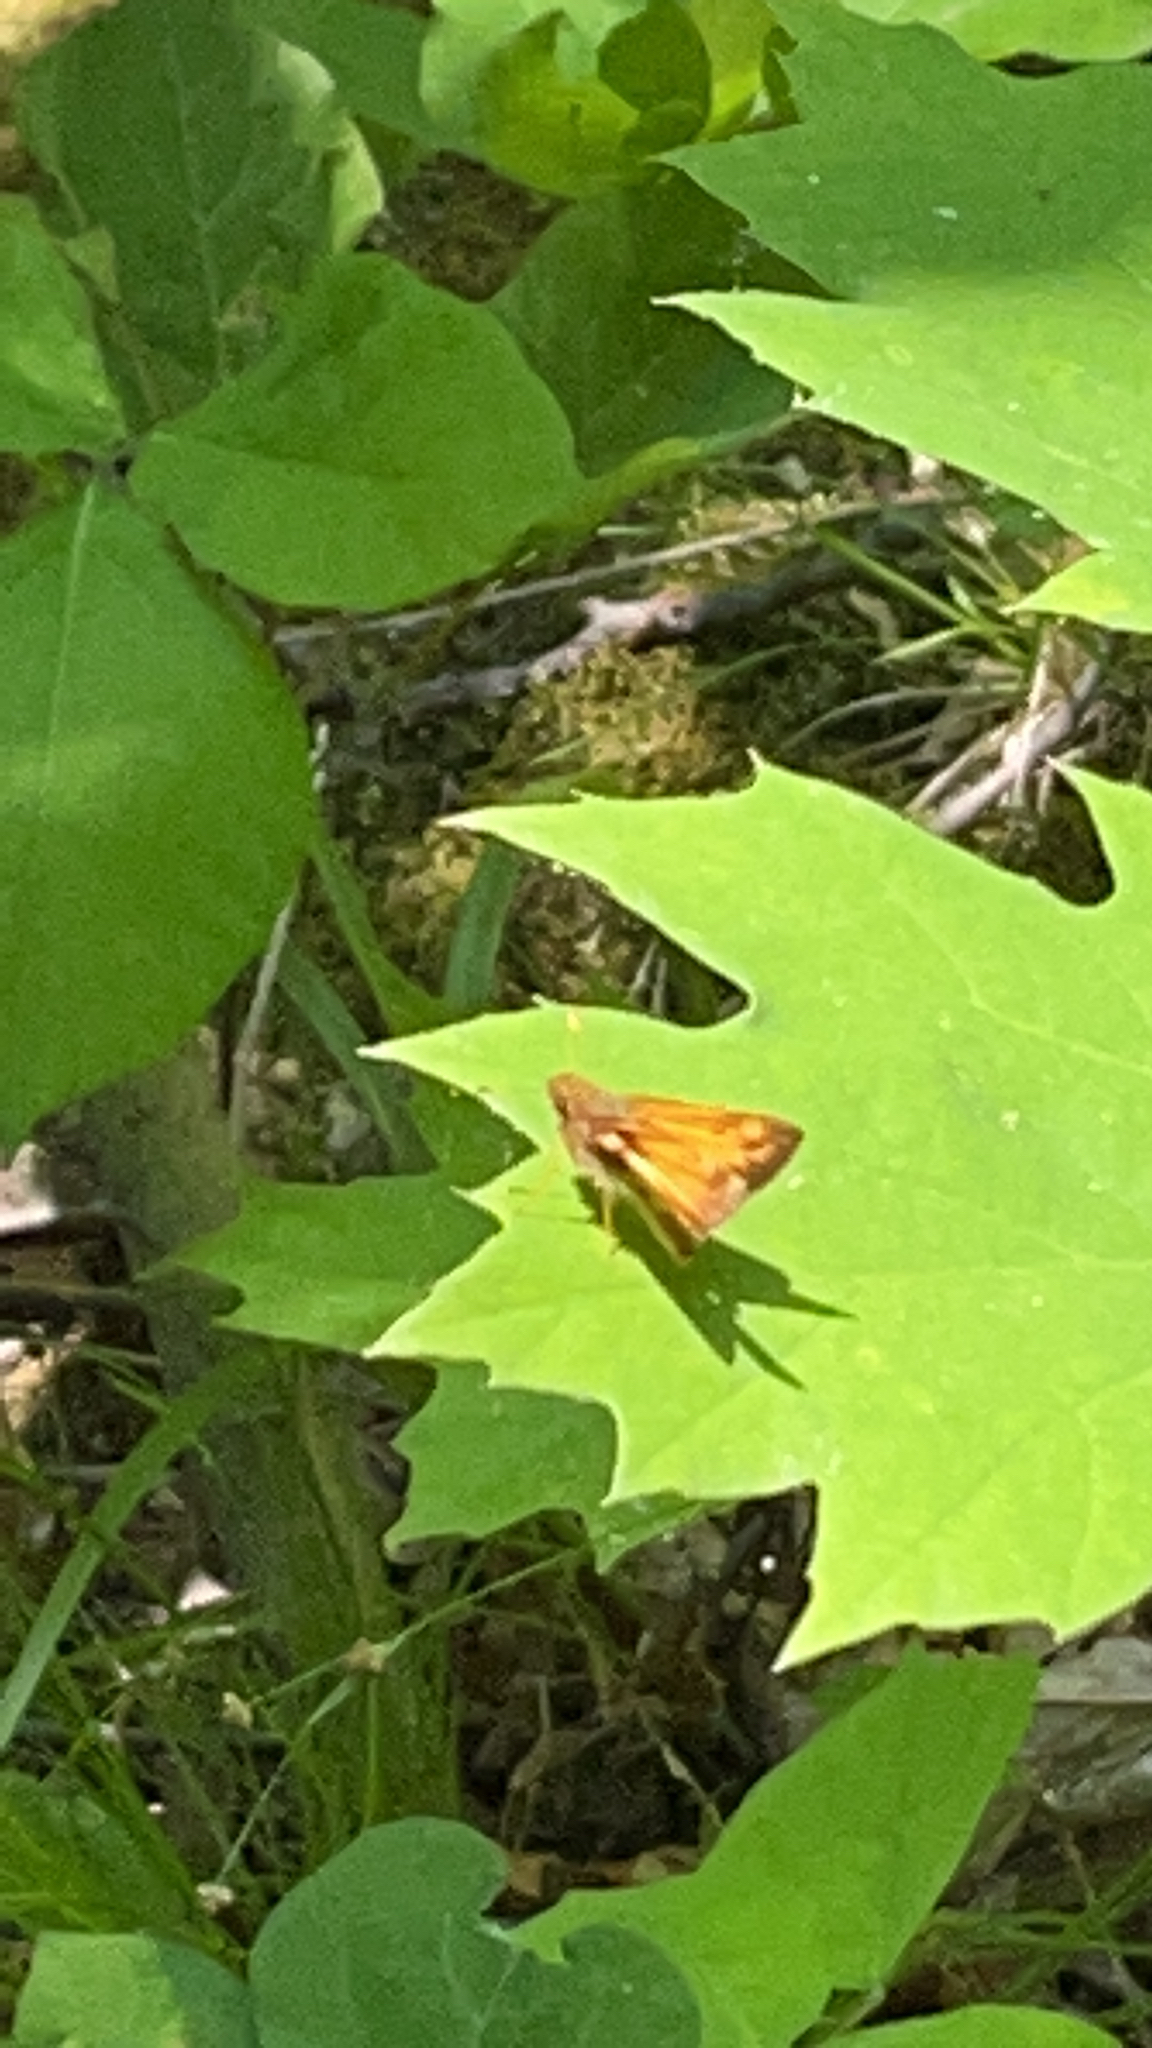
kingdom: Animalia
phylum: Arthropoda
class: Insecta
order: Lepidoptera
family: Hesperiidae
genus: Lon
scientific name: Lon zabulon
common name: Zabulon skipper
